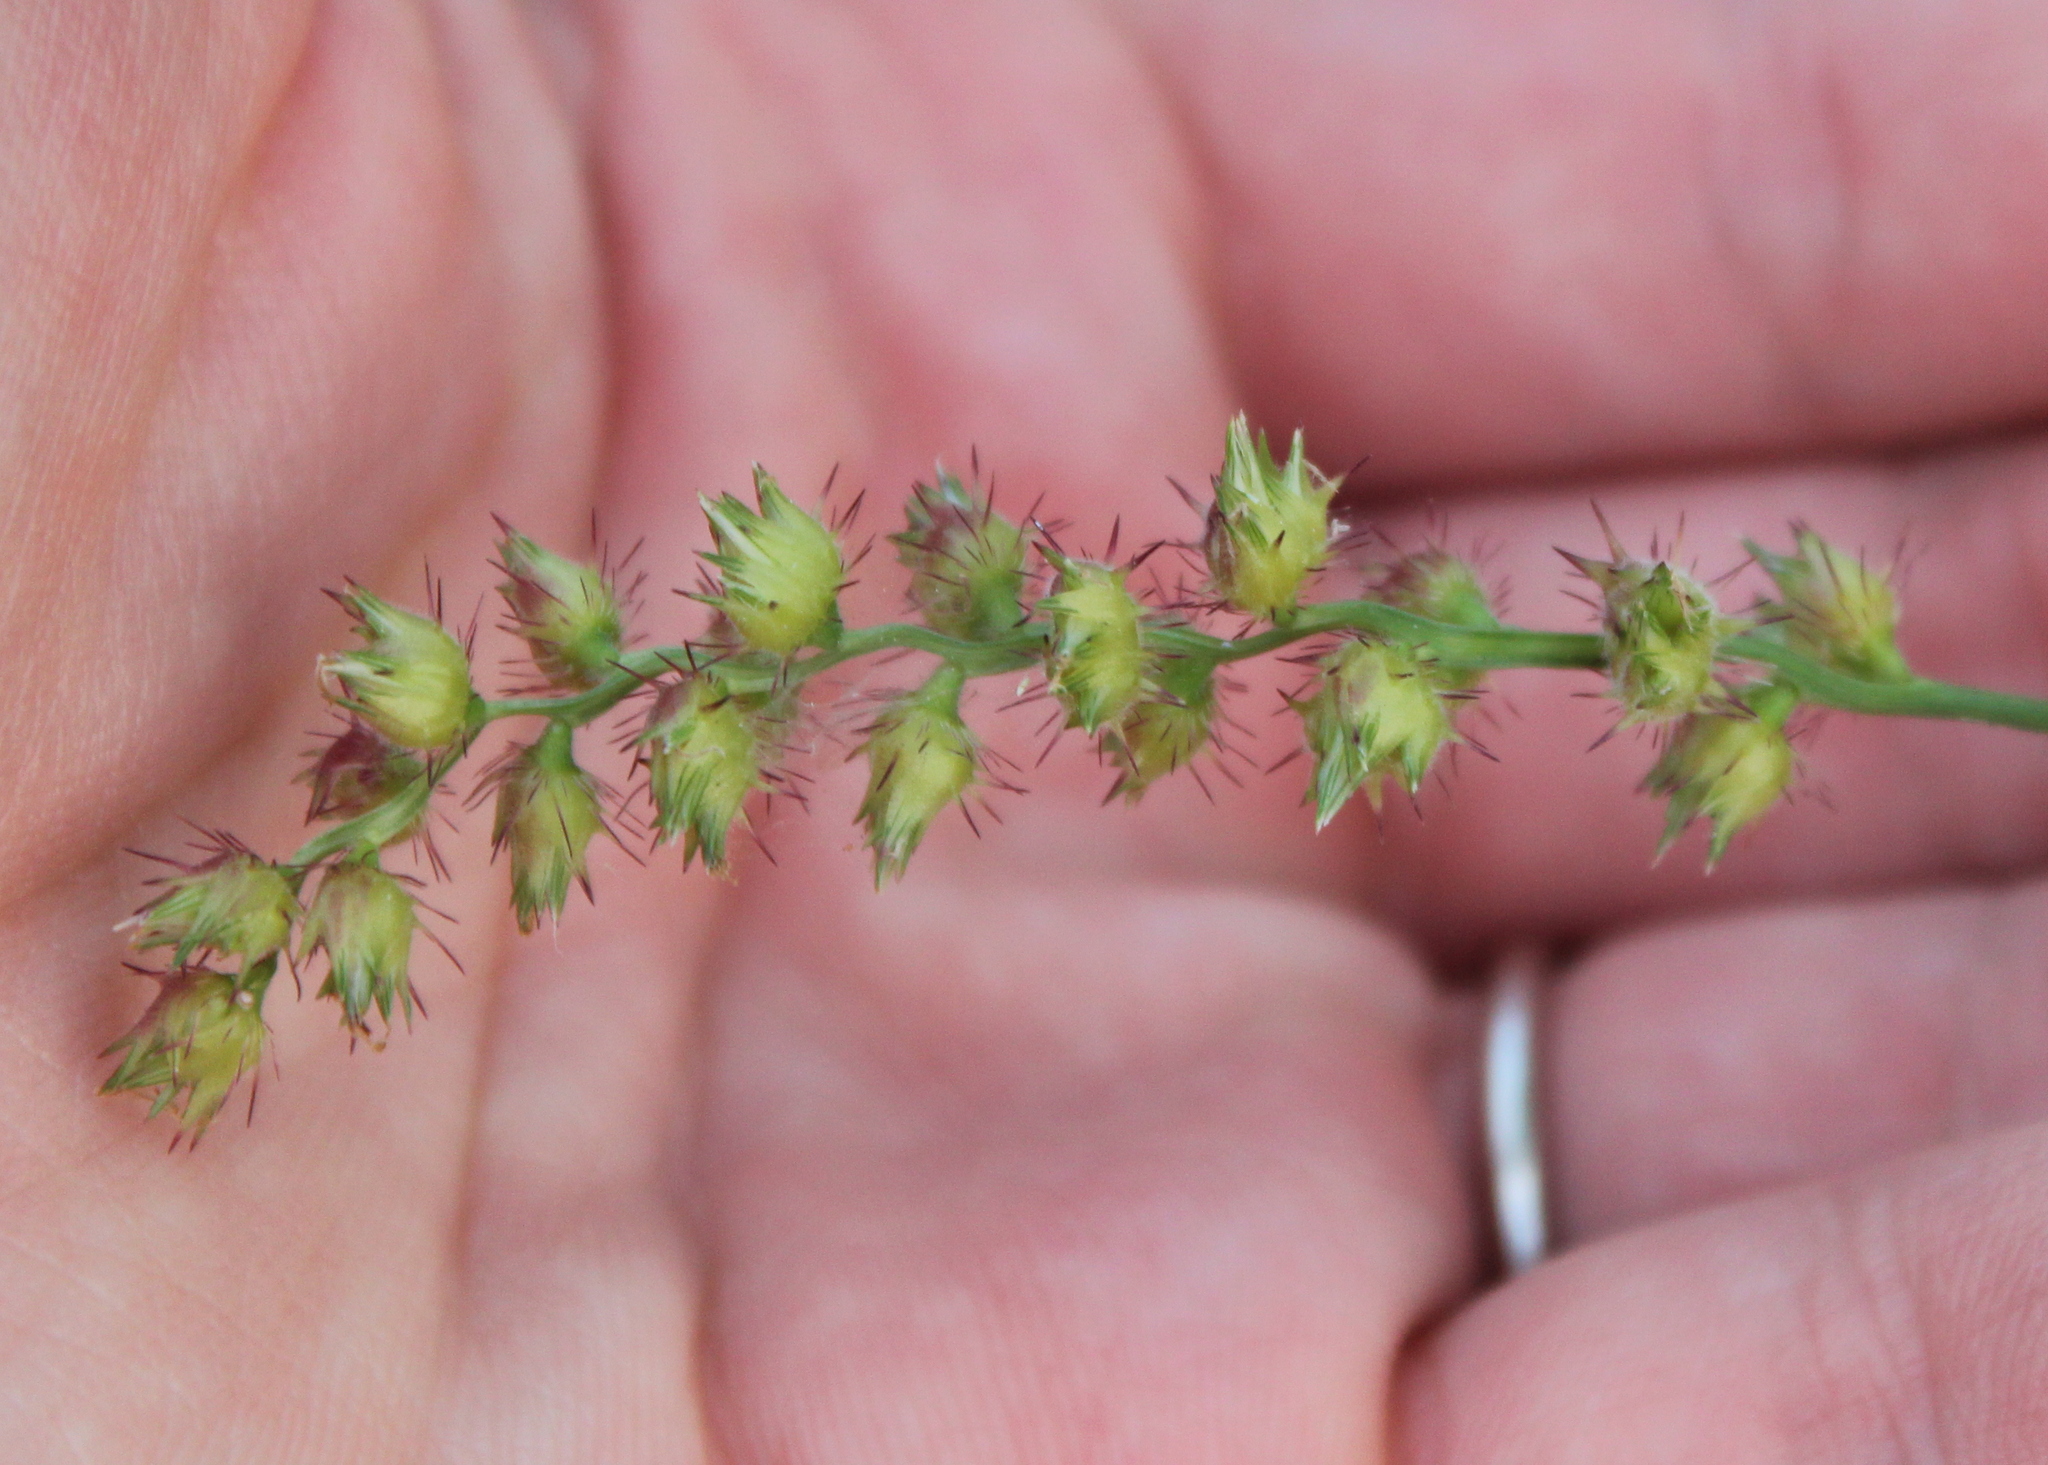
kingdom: Plantae
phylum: Tracheophyta
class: Liliopsida
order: Poales
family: Poaceae
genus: Cenchrus
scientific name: Cenchrus echinatus
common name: Southern sandbur
